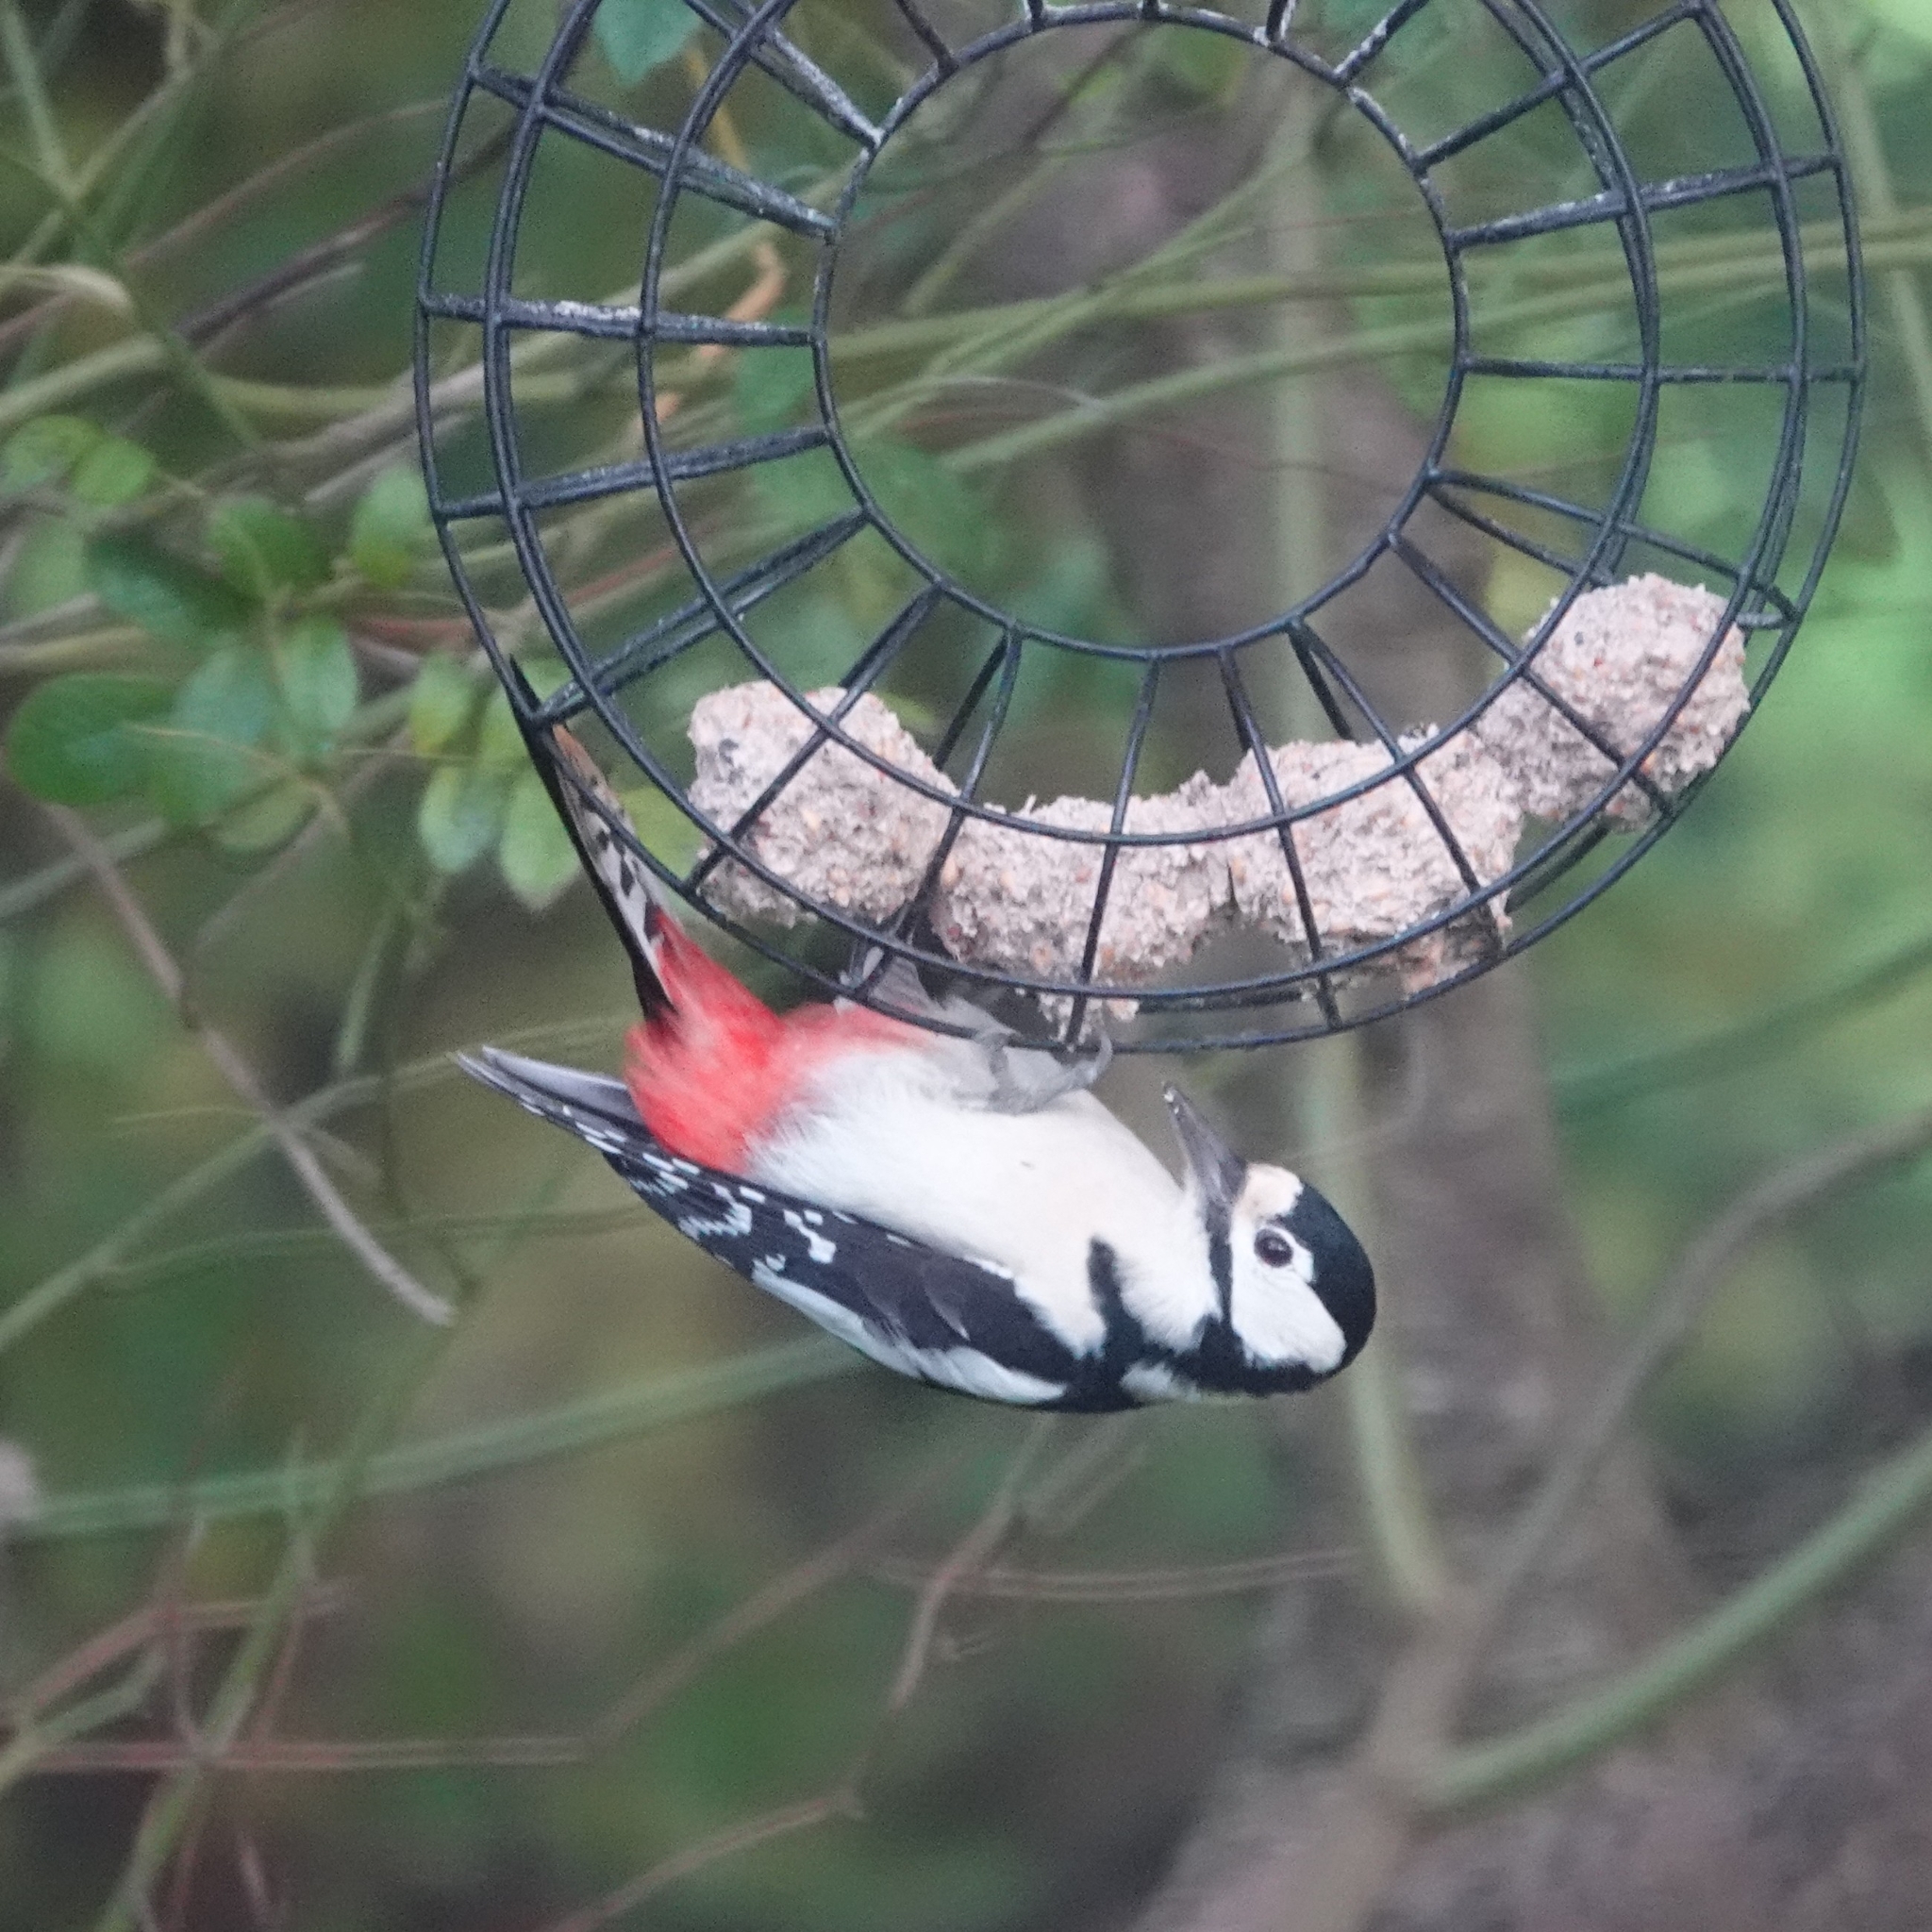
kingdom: Animalia
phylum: Chordata
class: Aves
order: Piciformes
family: Picidae
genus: Dendrocopos
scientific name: Dendrocopos major
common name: Great spotted woodpecker
